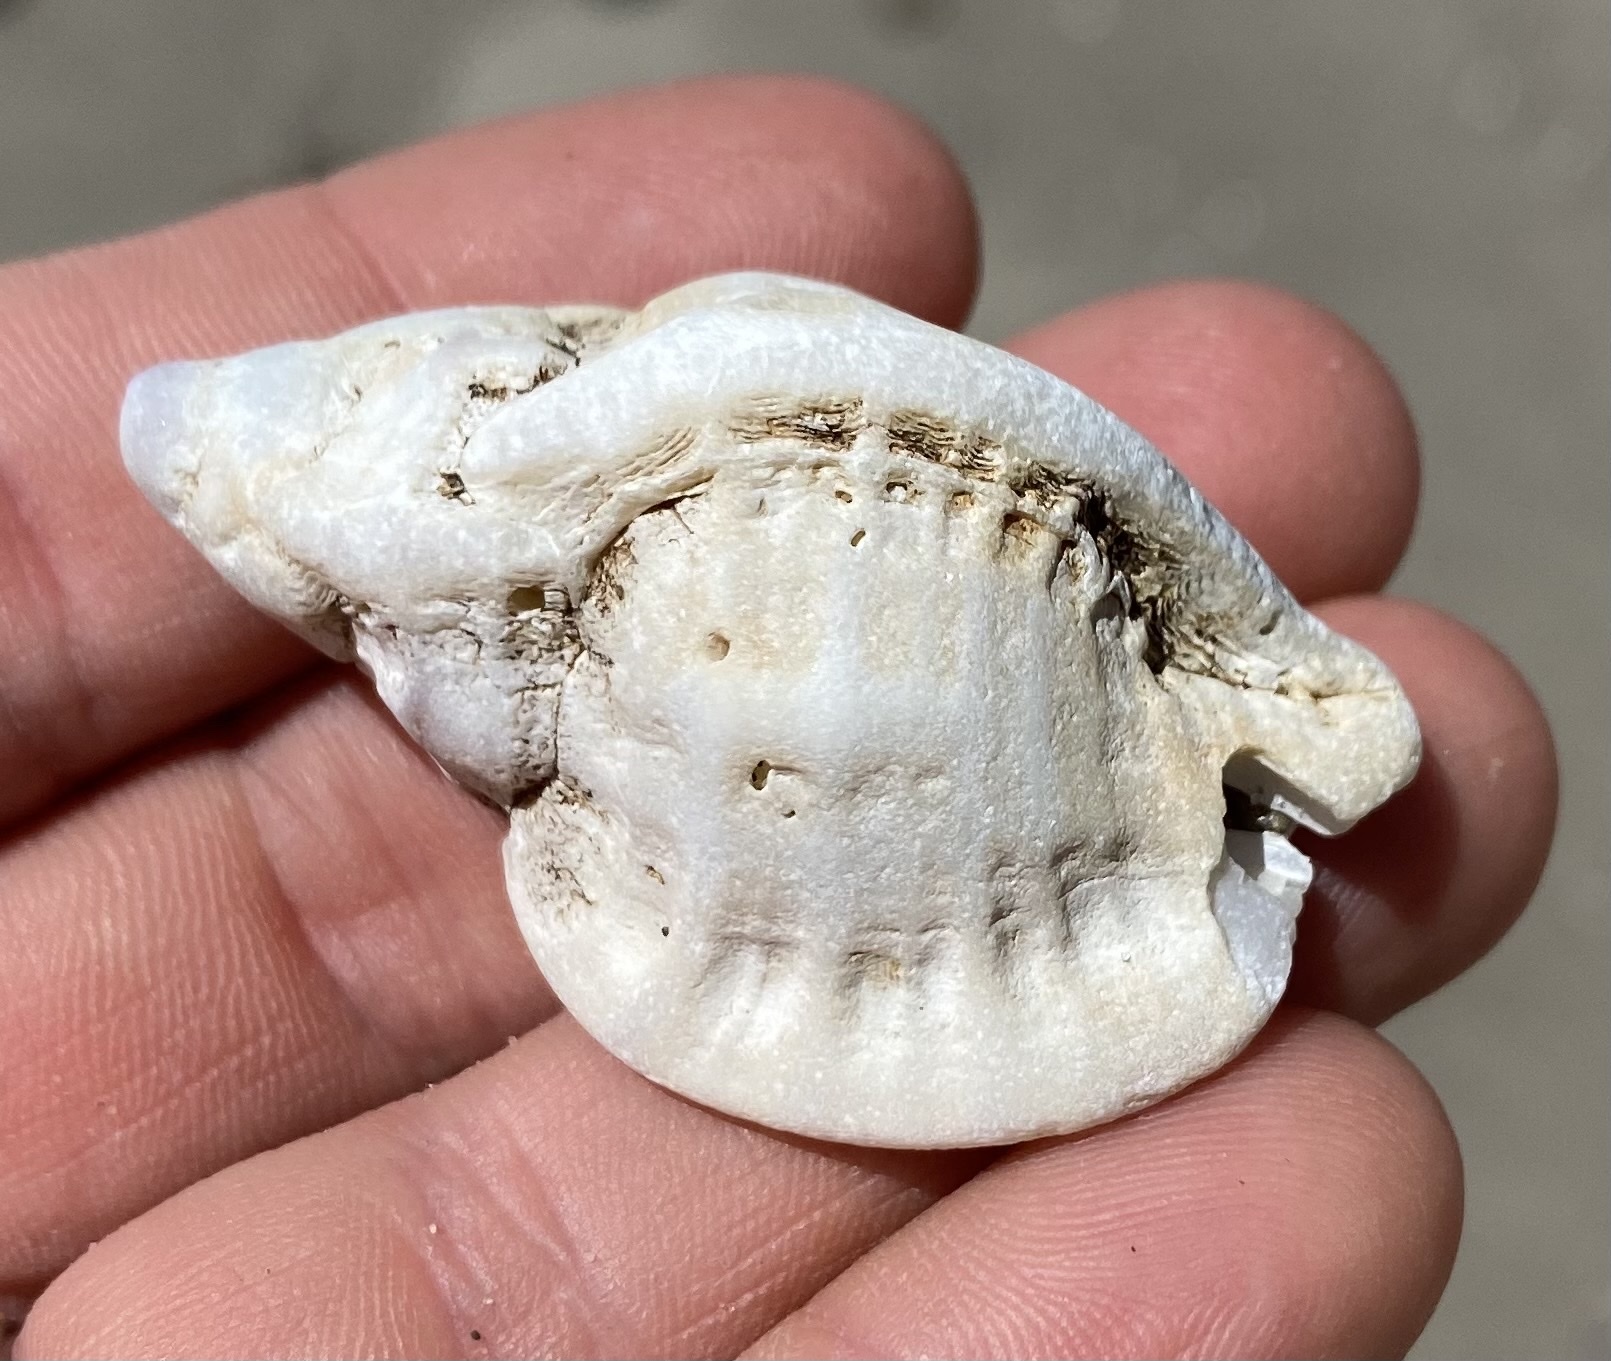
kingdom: Animalia
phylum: Mollusca
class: Gastropoda
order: Neogastropoda
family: Muricidae
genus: Ceratostoma
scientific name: Ceratostoma foliatum
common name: Foliate thorn purpura
